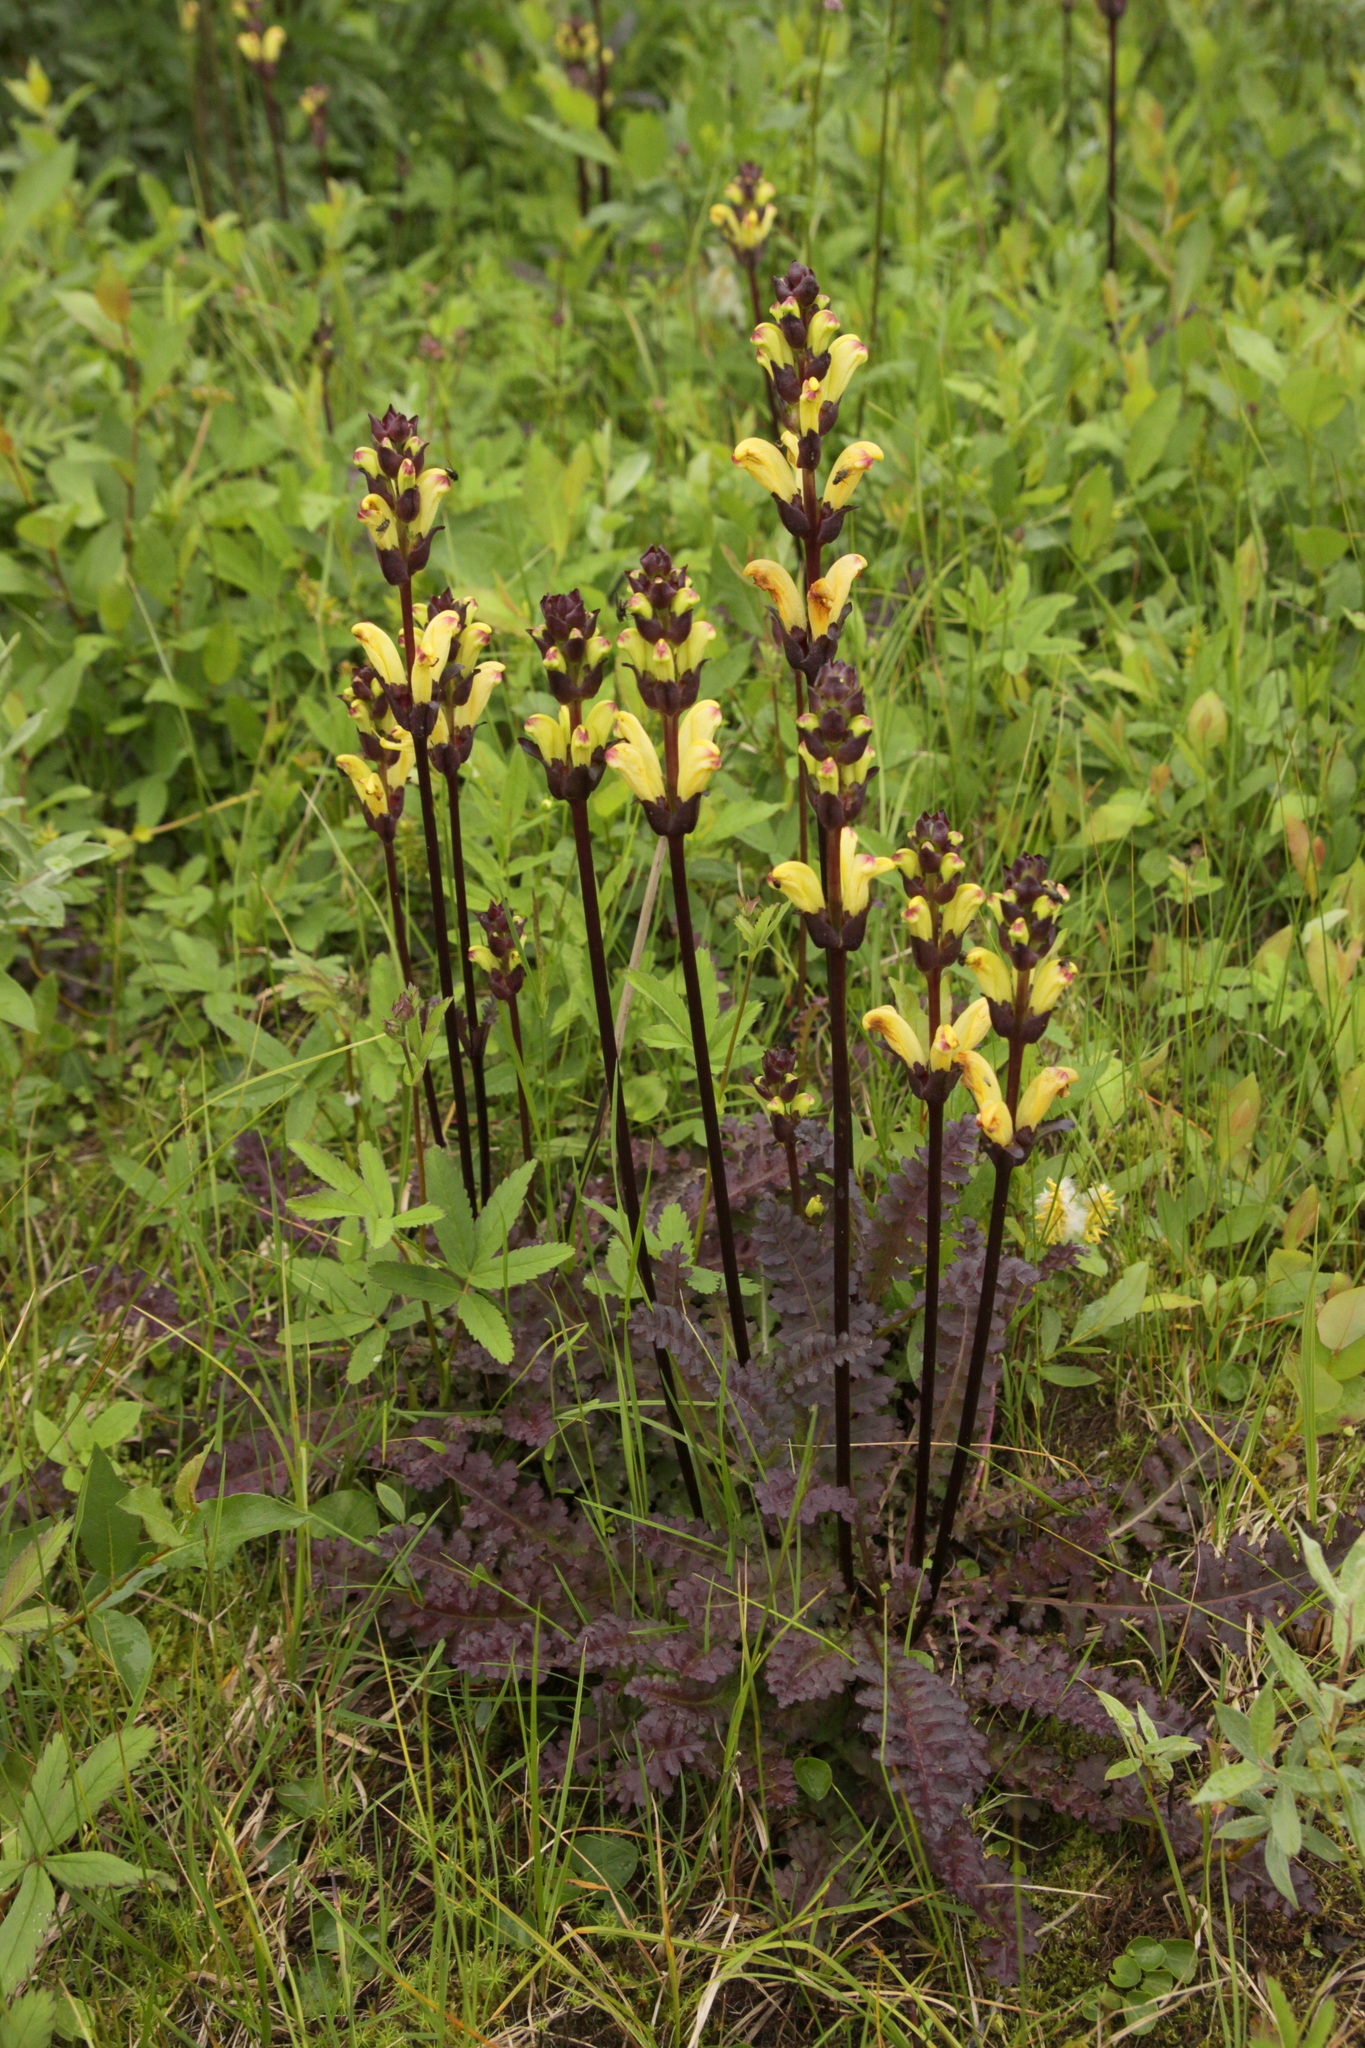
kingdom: Plantae
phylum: Tracheophyta
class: Magnoliopsida
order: Lamiales
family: Orobanchaceae
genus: Pedicularis
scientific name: Pedicularis sceptrum-carolinum
